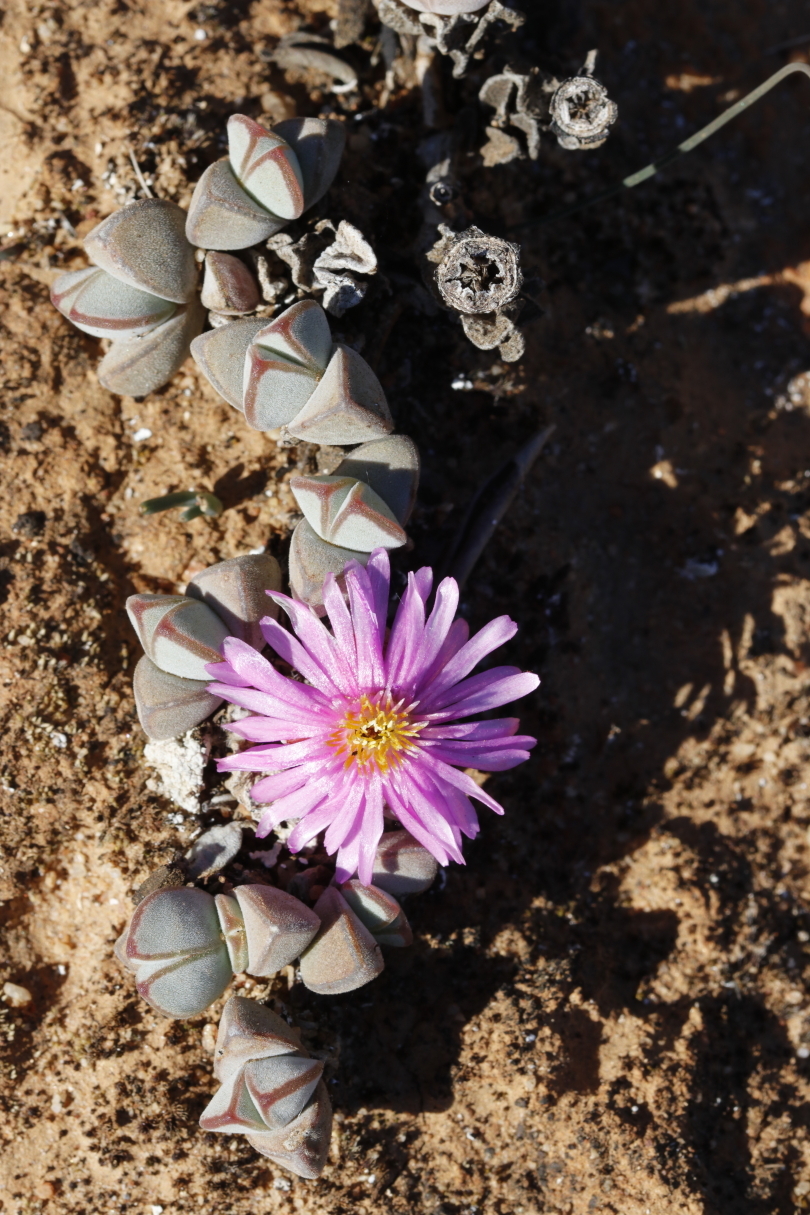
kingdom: Plantae
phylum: Tracheophyta
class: Magnoliopsida
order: Caryophyllales
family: Aizoaceae
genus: Braunsia
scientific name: Braunsia maximiliani
